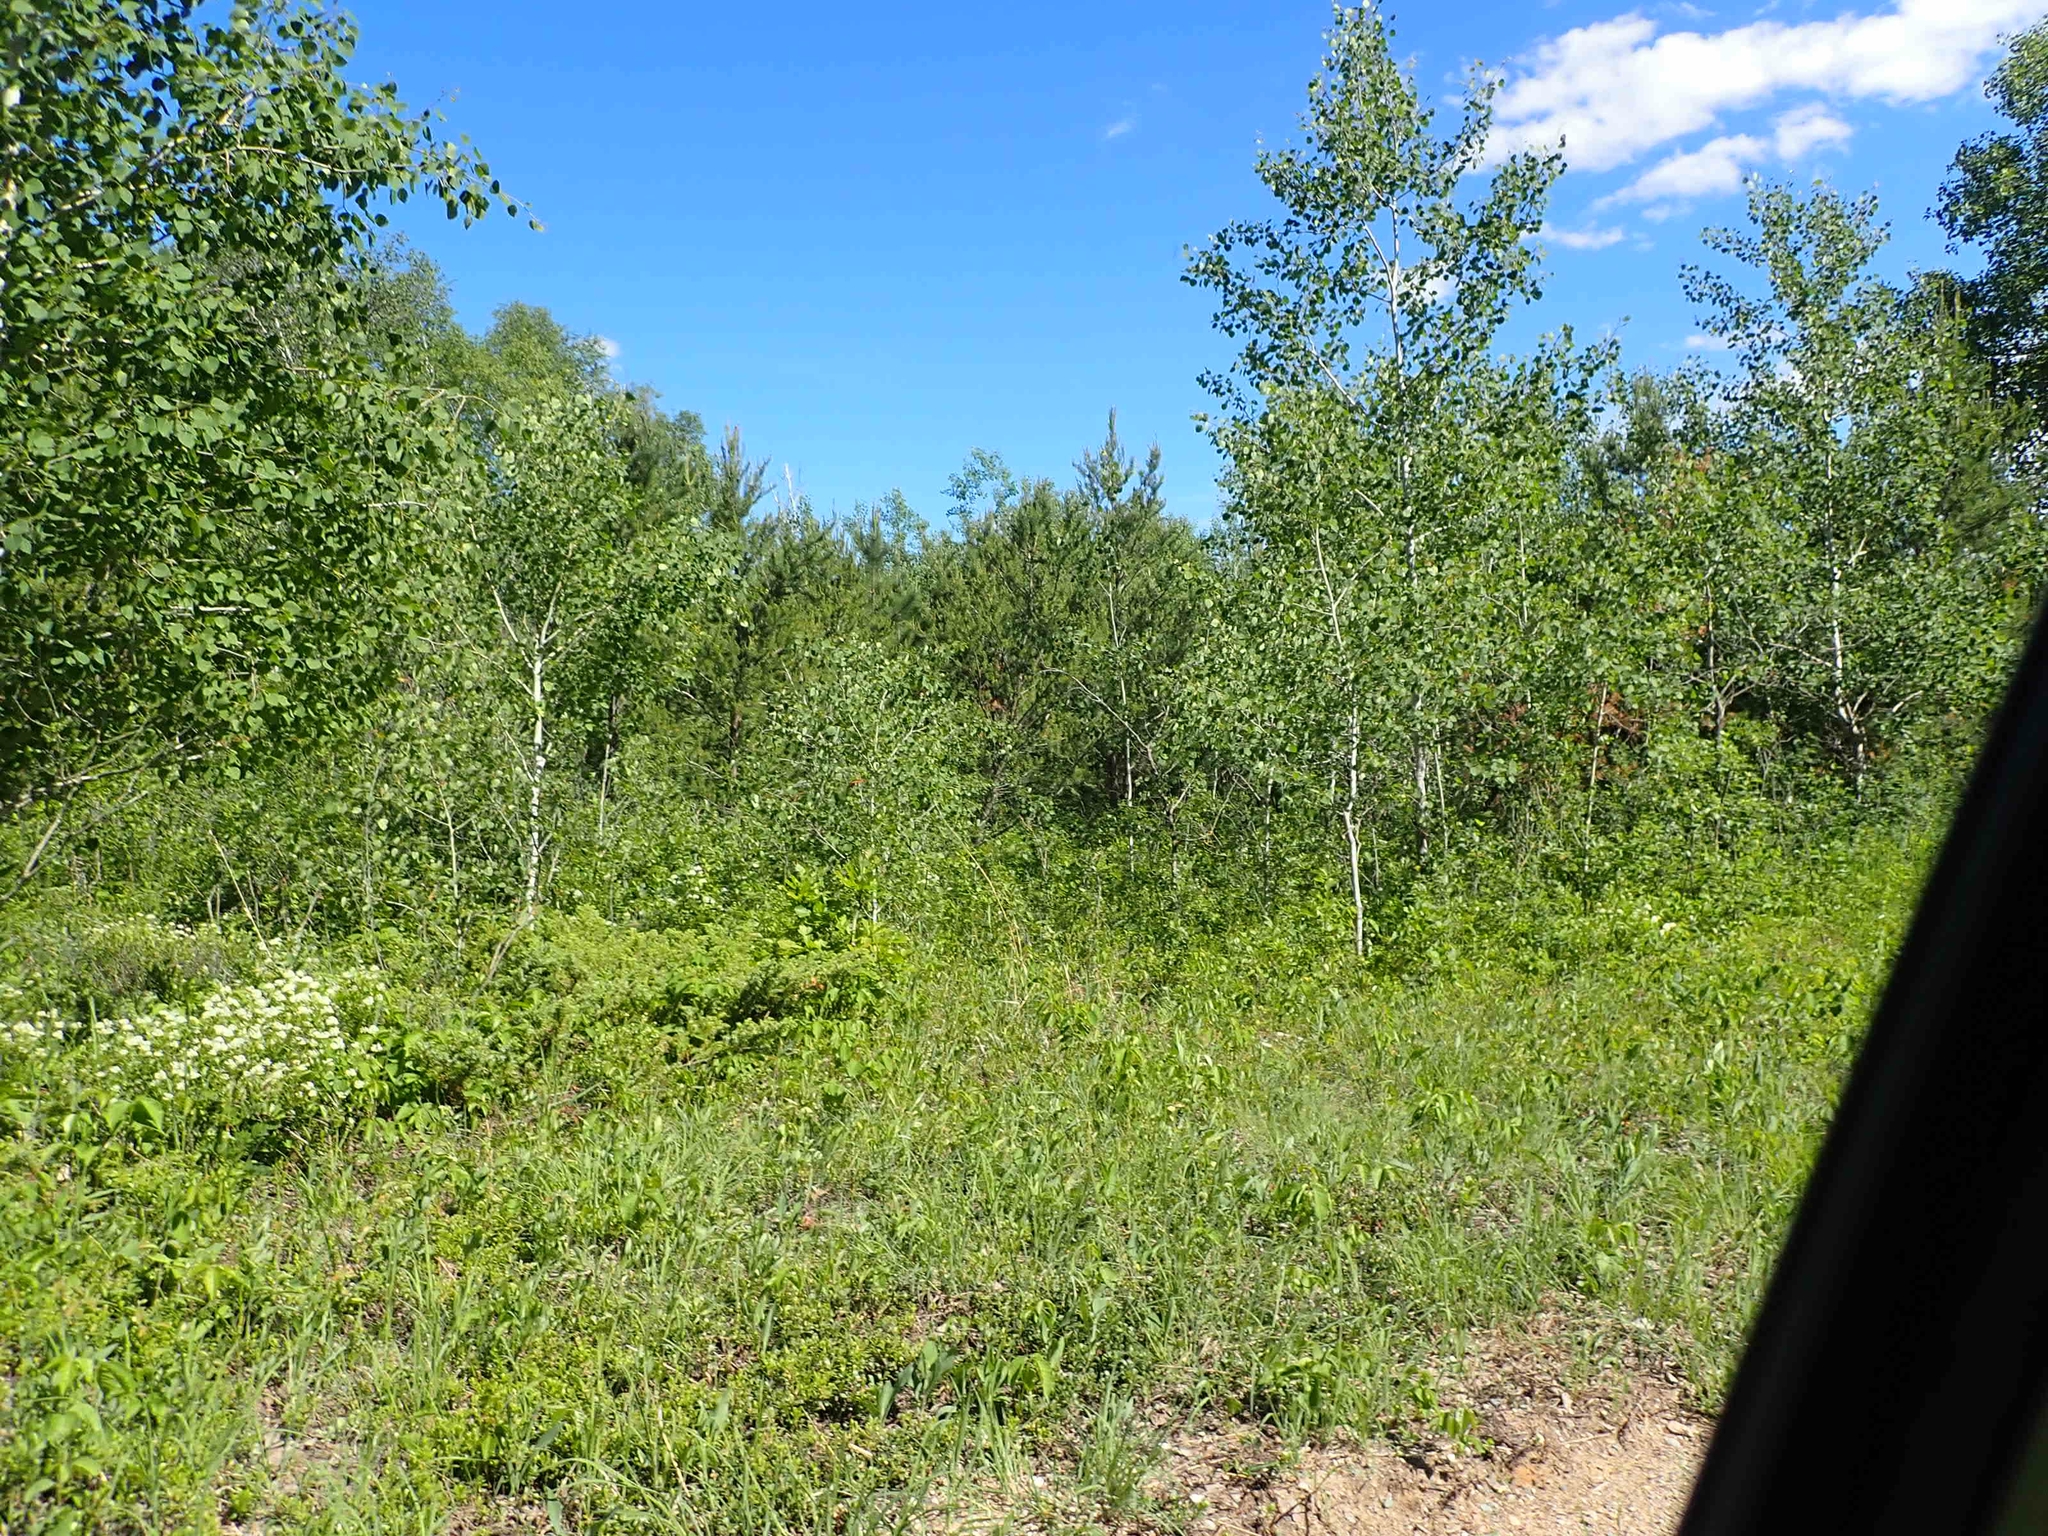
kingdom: Plantae
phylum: Tracheophyta
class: Magnoliopsida
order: Rosales
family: Rhamnaceae
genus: Ceanothus
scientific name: Ceanothus herbaceus
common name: Inland ceanothus
